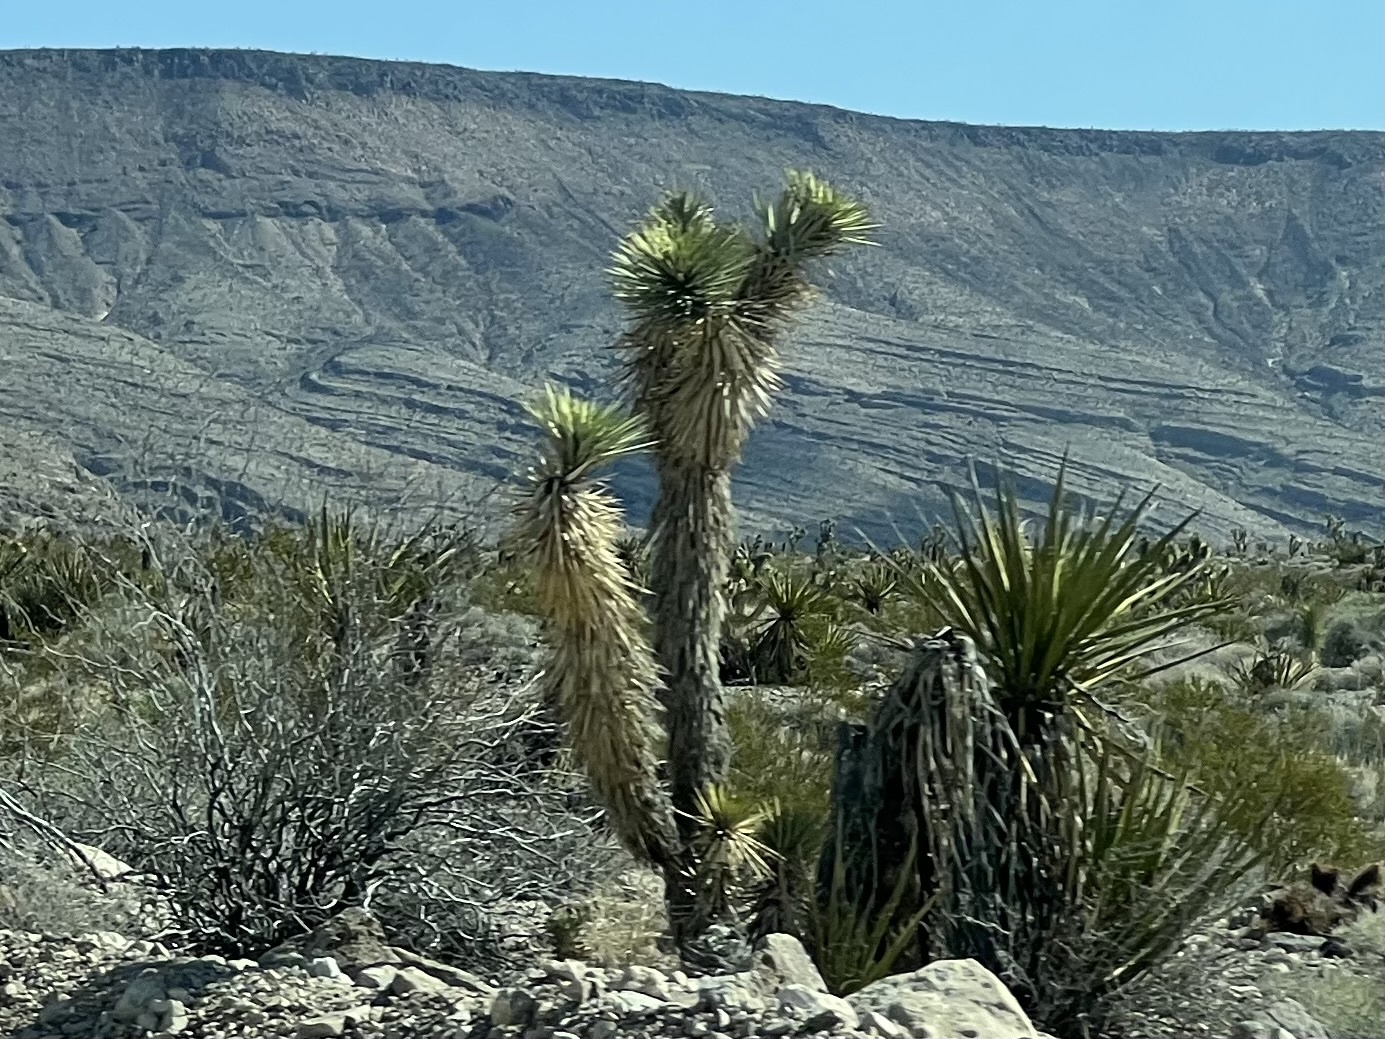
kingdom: Plantae
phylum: Tracheophyta
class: Liliopsida
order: Asparagales
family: Asparagaceae
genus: Yucca
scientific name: Yucca brevifolia
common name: Joshua tree
